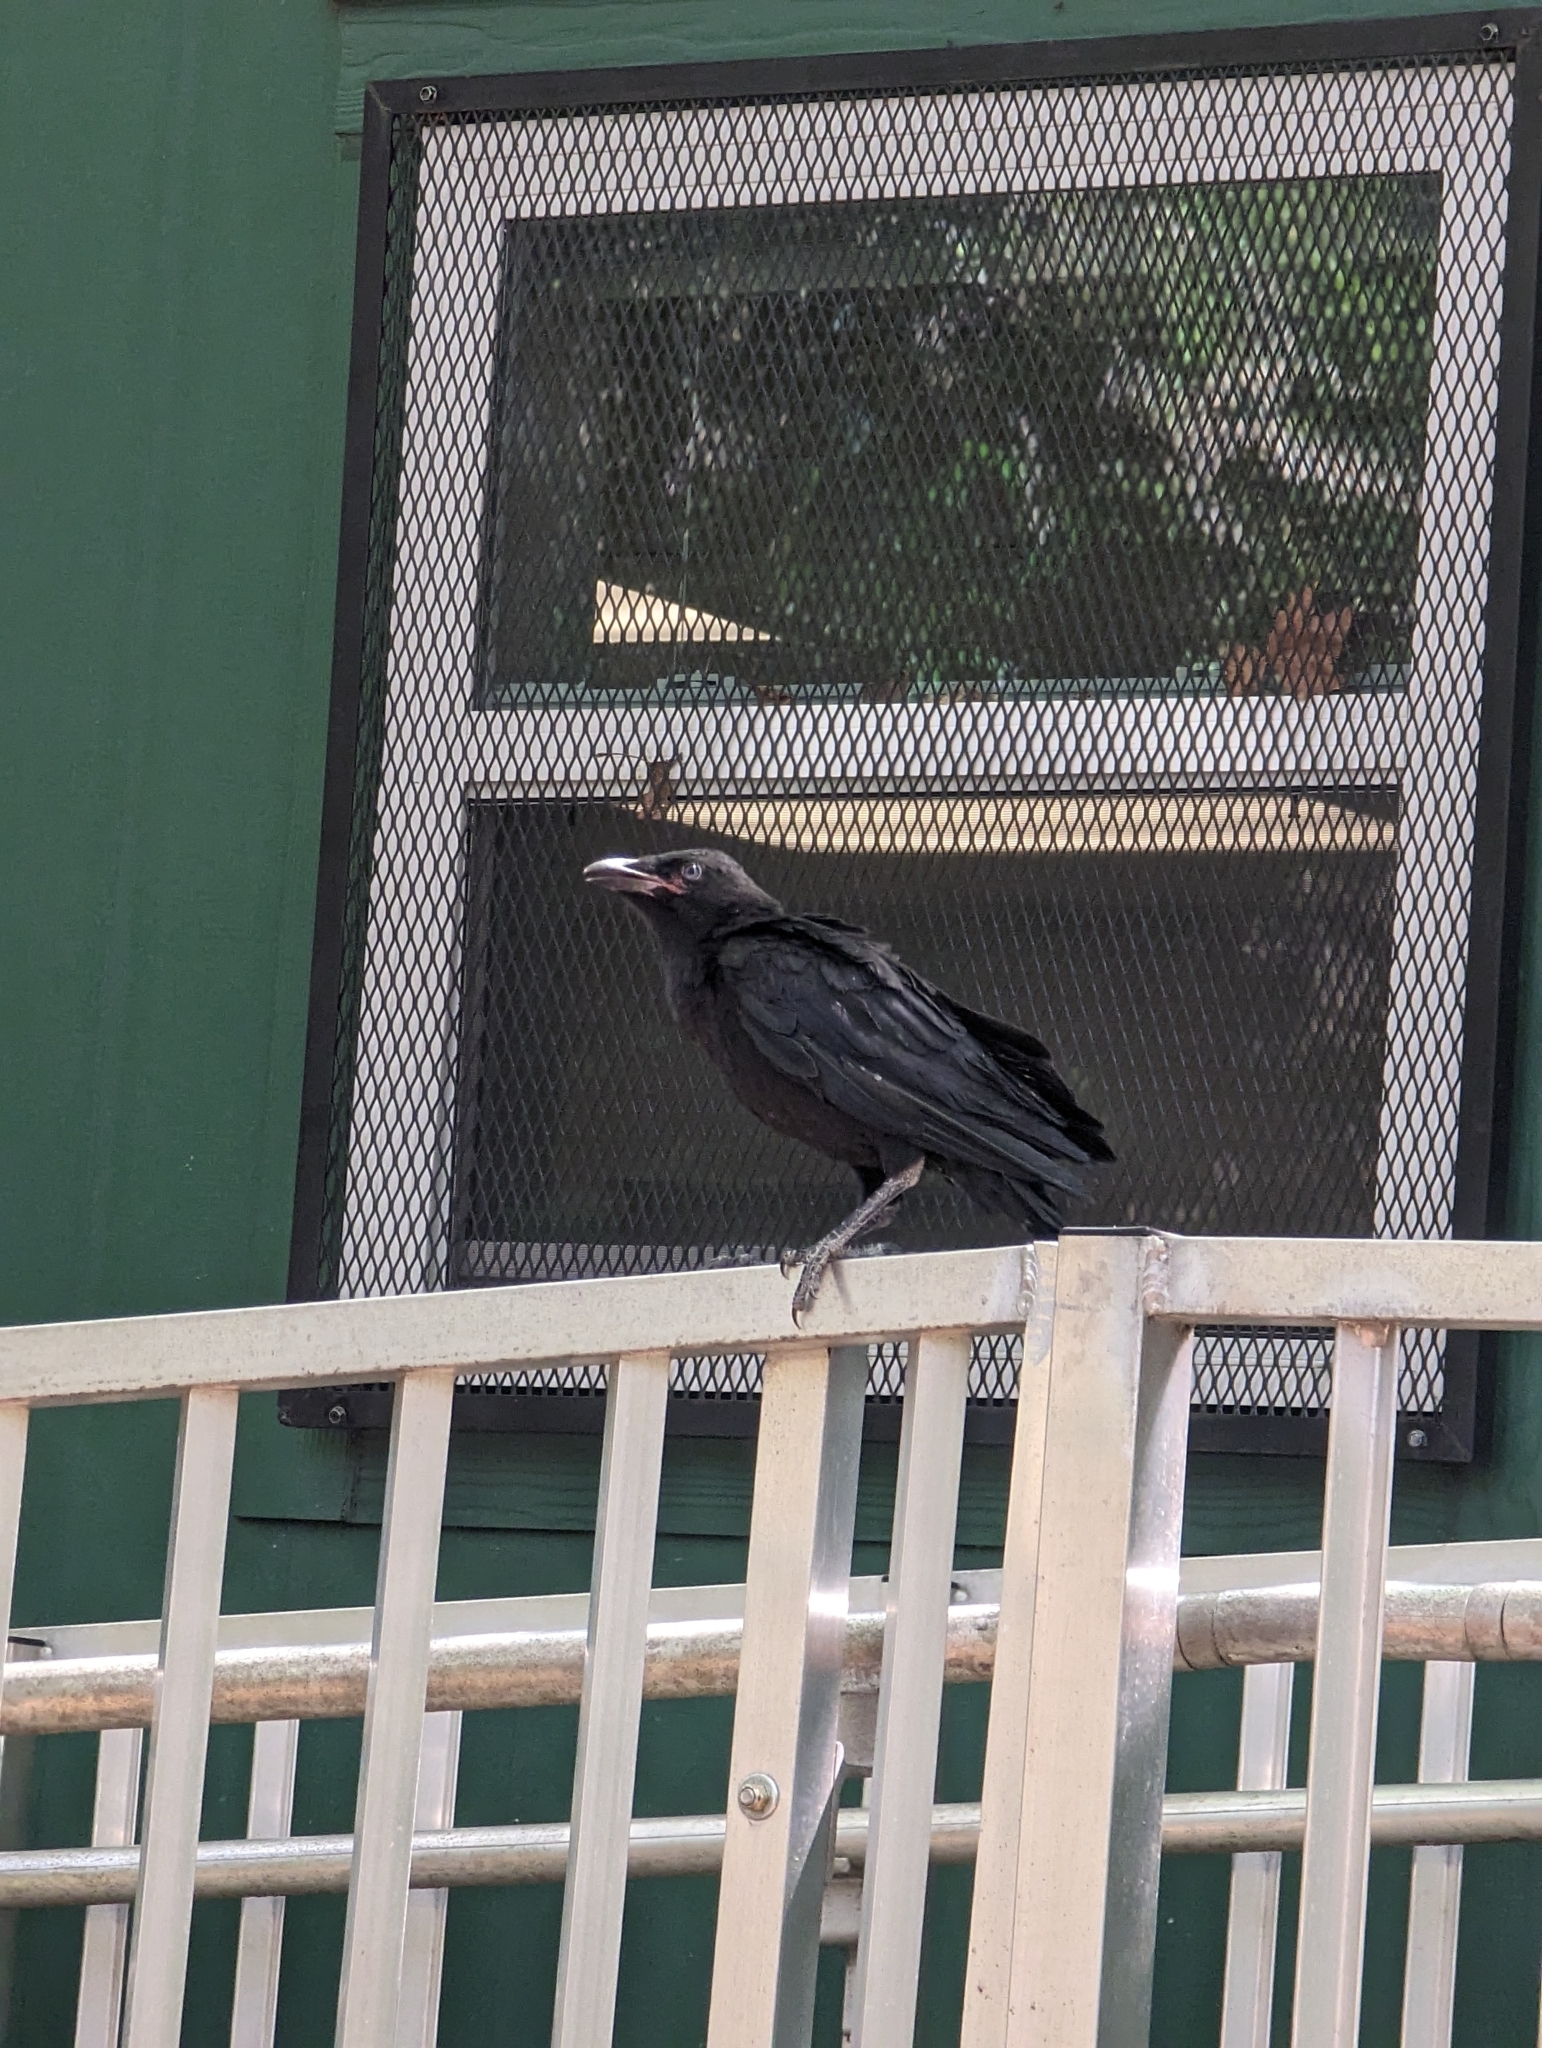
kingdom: Animalia
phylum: Chordata
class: Aves
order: Passeriformes
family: Corvidae
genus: Corvus
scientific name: Corvus brachyrhynchos
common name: American crow
